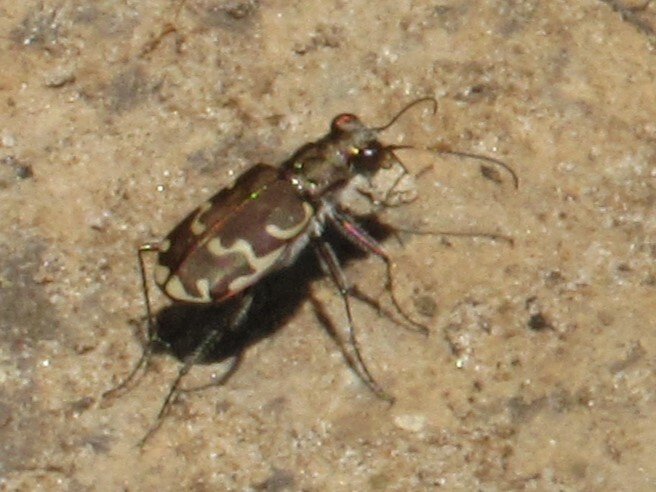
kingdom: Animalia
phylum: Arthropoda
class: Insecta
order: Coleoptera
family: Carabidae
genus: Cicindela
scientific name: Cicindela repanda
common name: Bronzed tiger beetle
